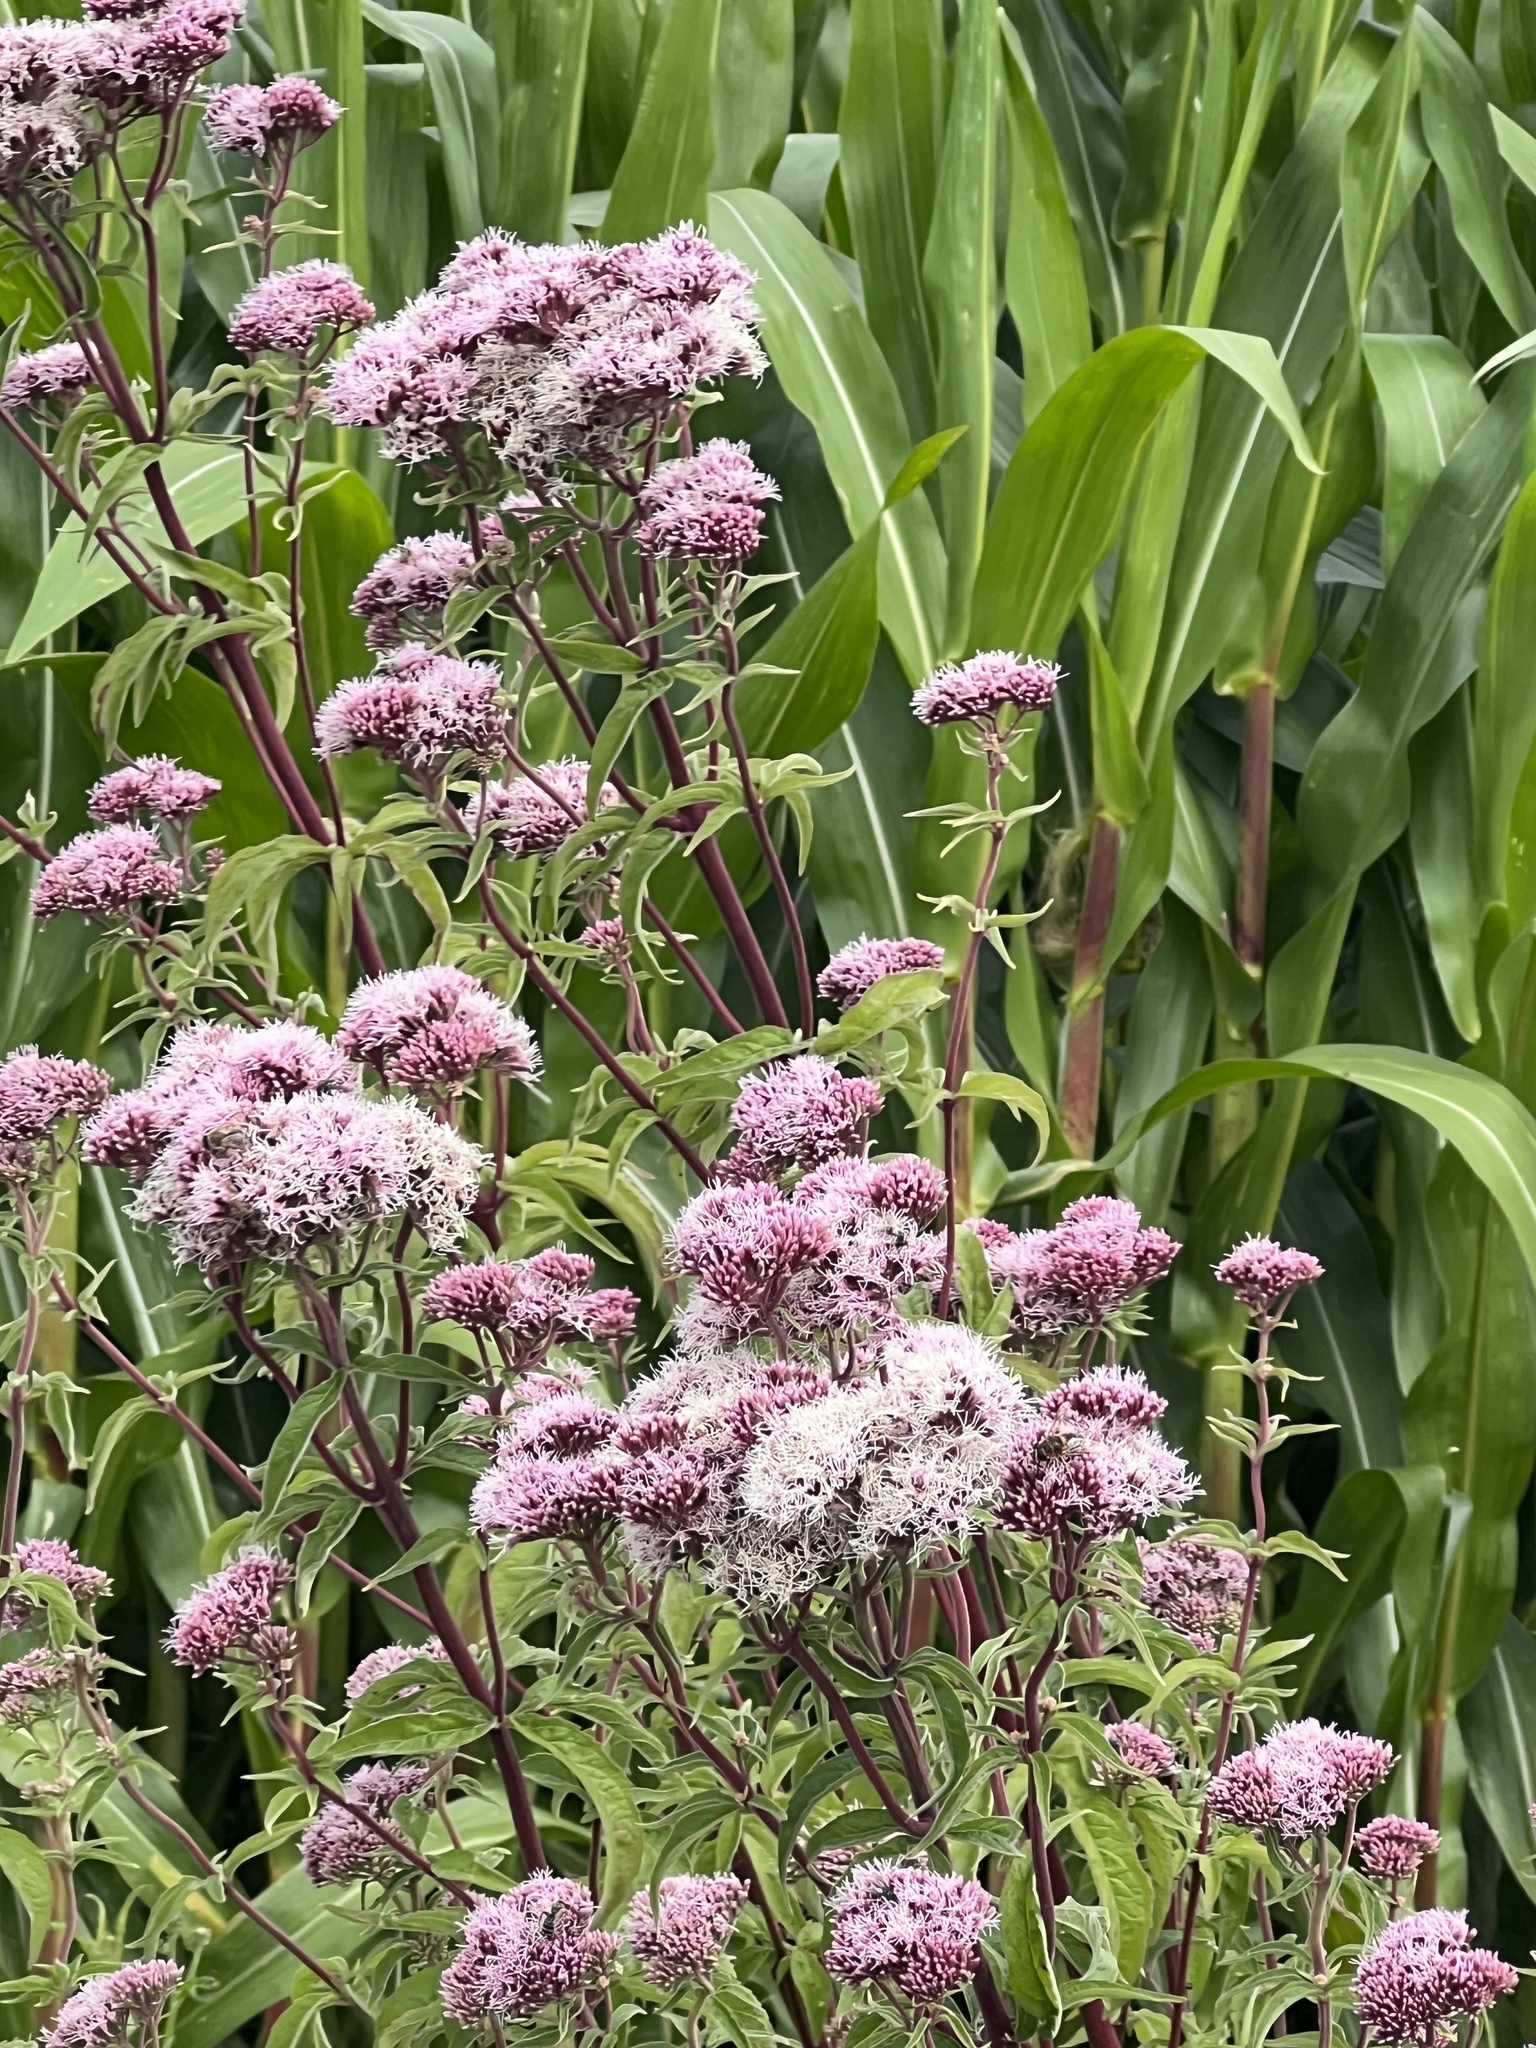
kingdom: Plantae
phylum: Tracheophyta
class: Magnoliopsida
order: Asterales
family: Asteraceae
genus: Eupatorium
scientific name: Eupatorium cannabinum
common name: Hemp-agrimony
